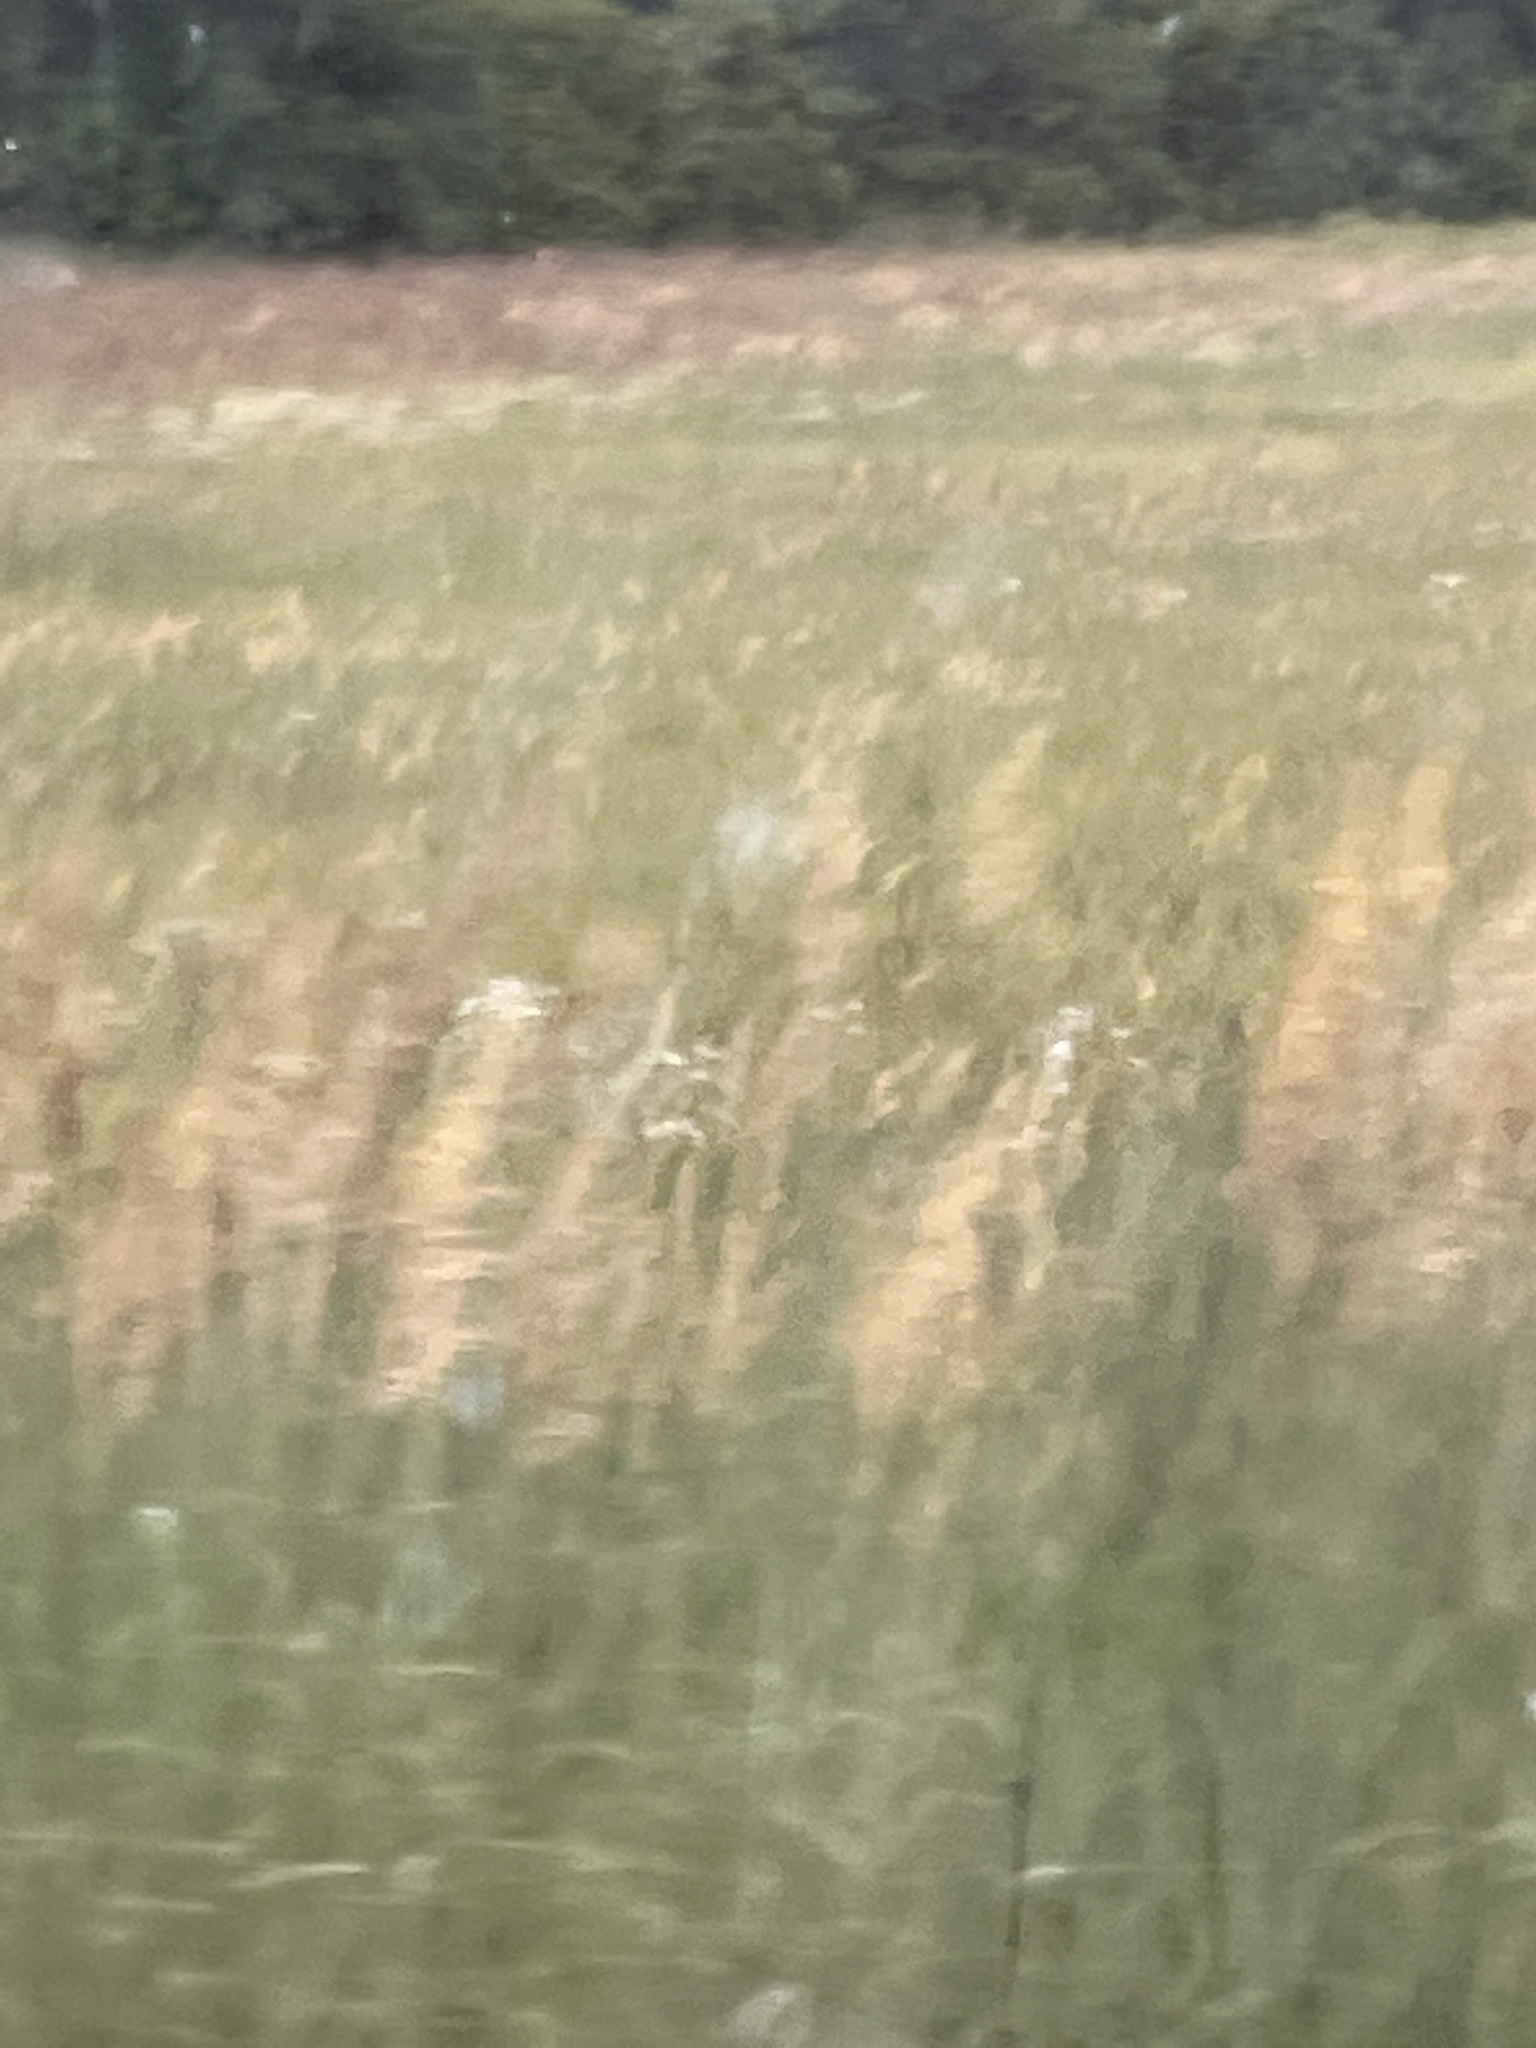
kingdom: Plantae
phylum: Tracheophyta
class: Liliopsida
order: Poales
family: Poaceae
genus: Phragmites
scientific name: Phragmites australis
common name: Common reed
